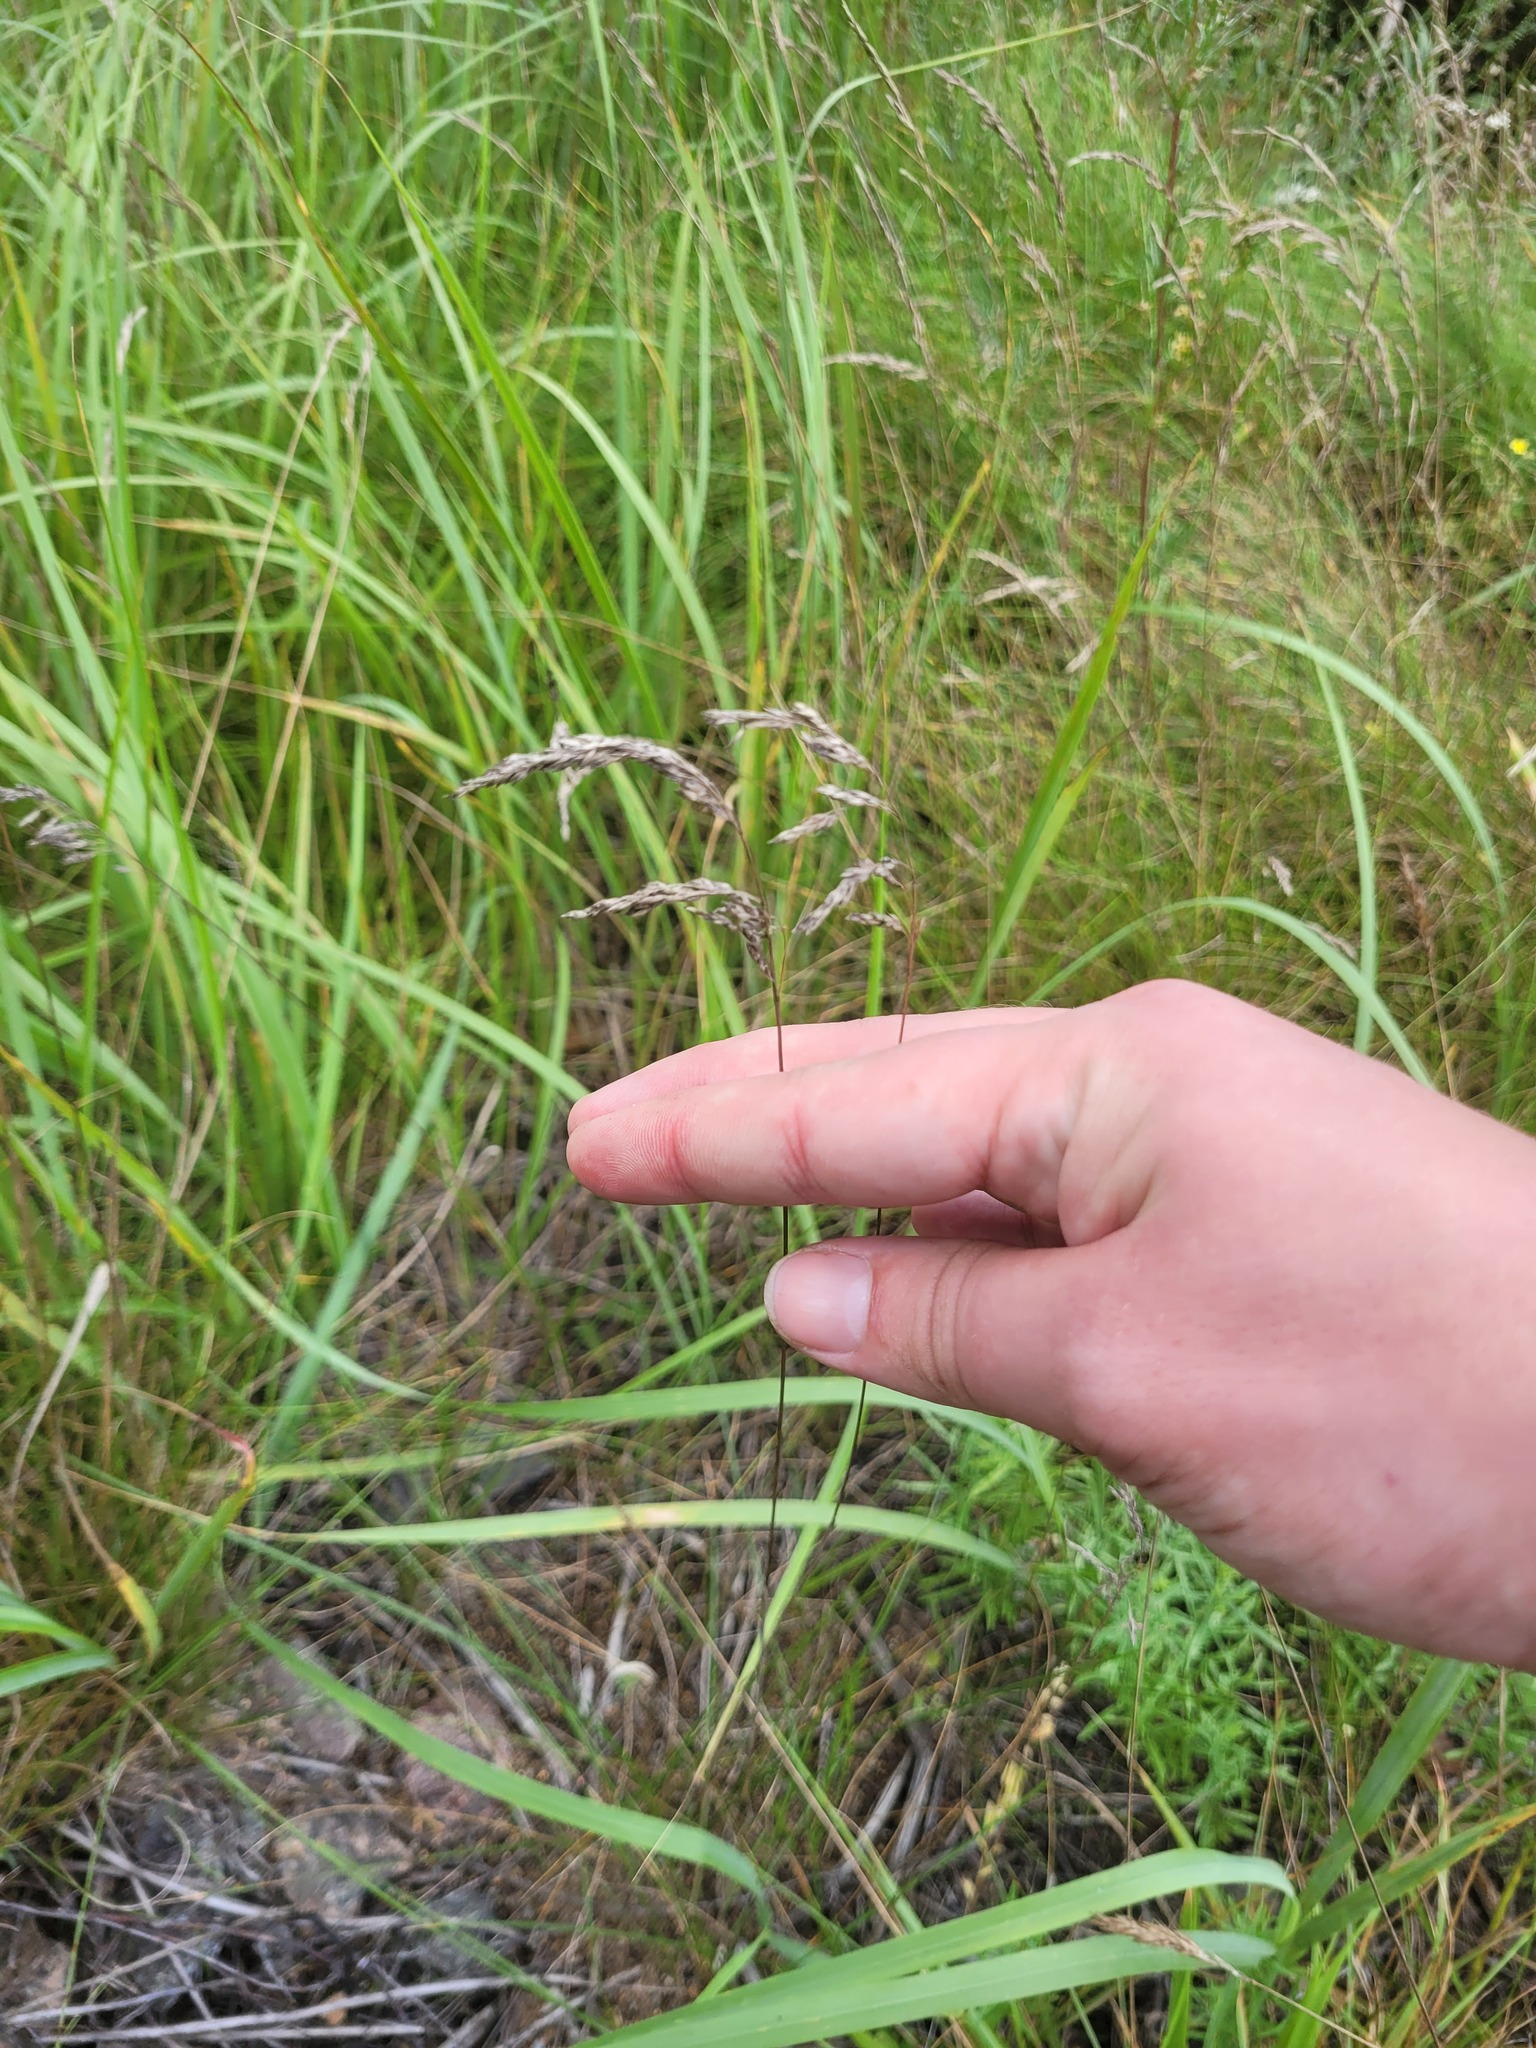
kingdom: Plantae
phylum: Tracheophyta
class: Liliopsida
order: Poales
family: Poaceae
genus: Poa
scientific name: Poa angustifolia
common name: Narrow-leaved meadow-grass
